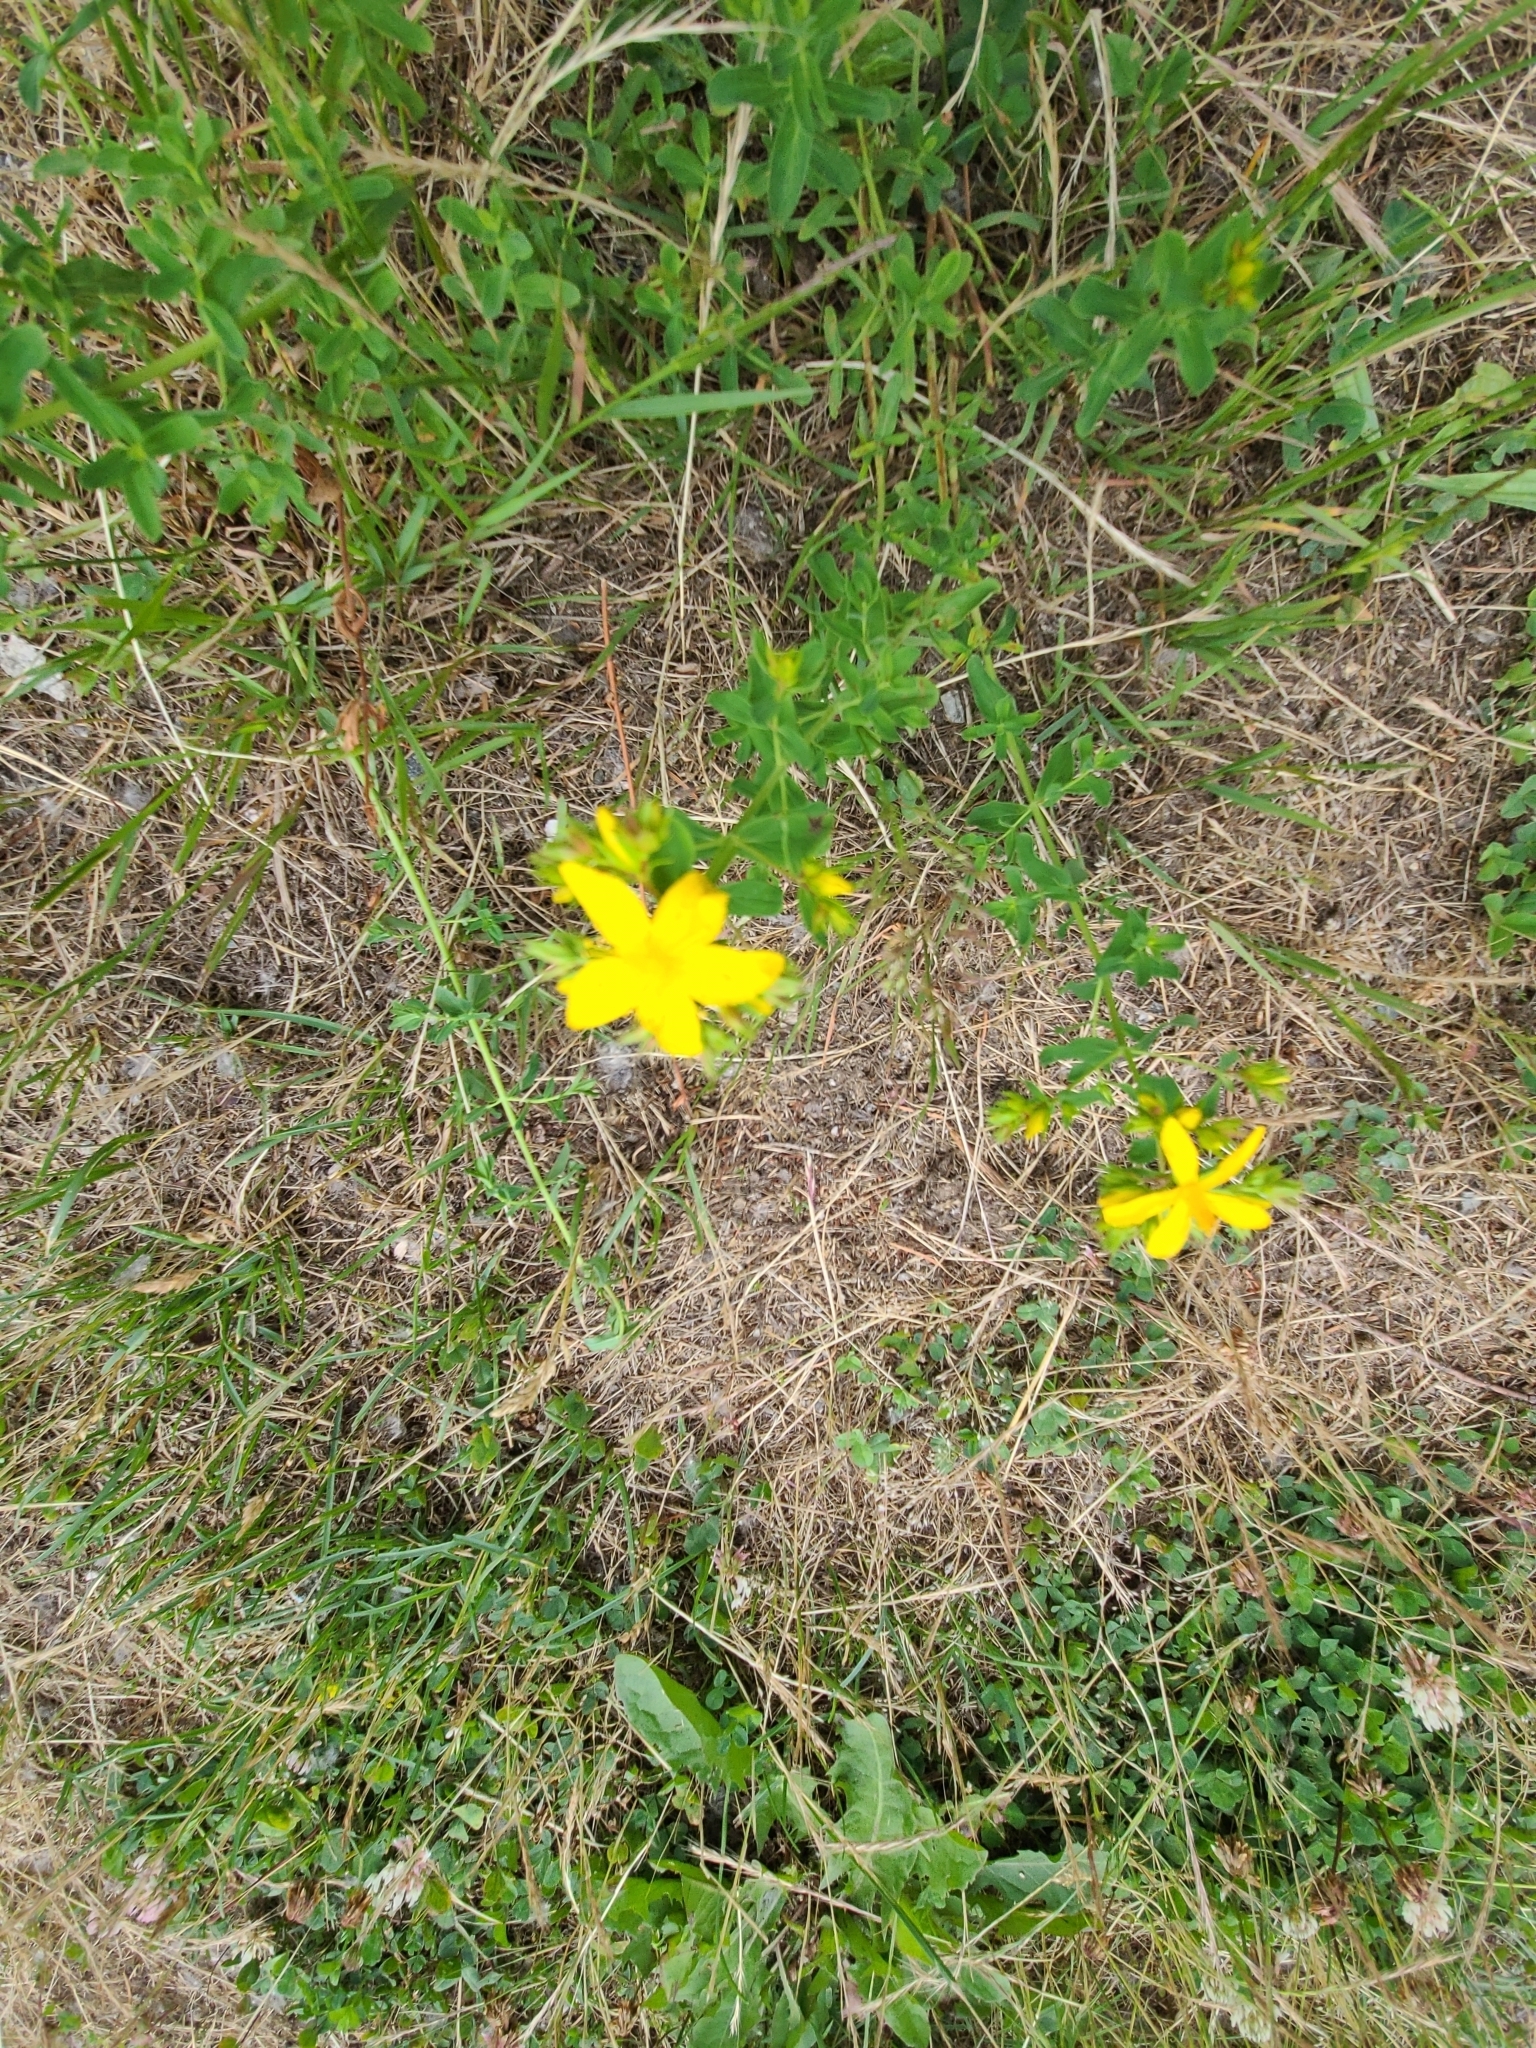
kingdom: Plantae
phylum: Tracheophyta
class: Magnoliopsida
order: Malpighiales
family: Hypericaceae
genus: Hypericum
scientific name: Hypericum perforatum
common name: Common st. johnswort
